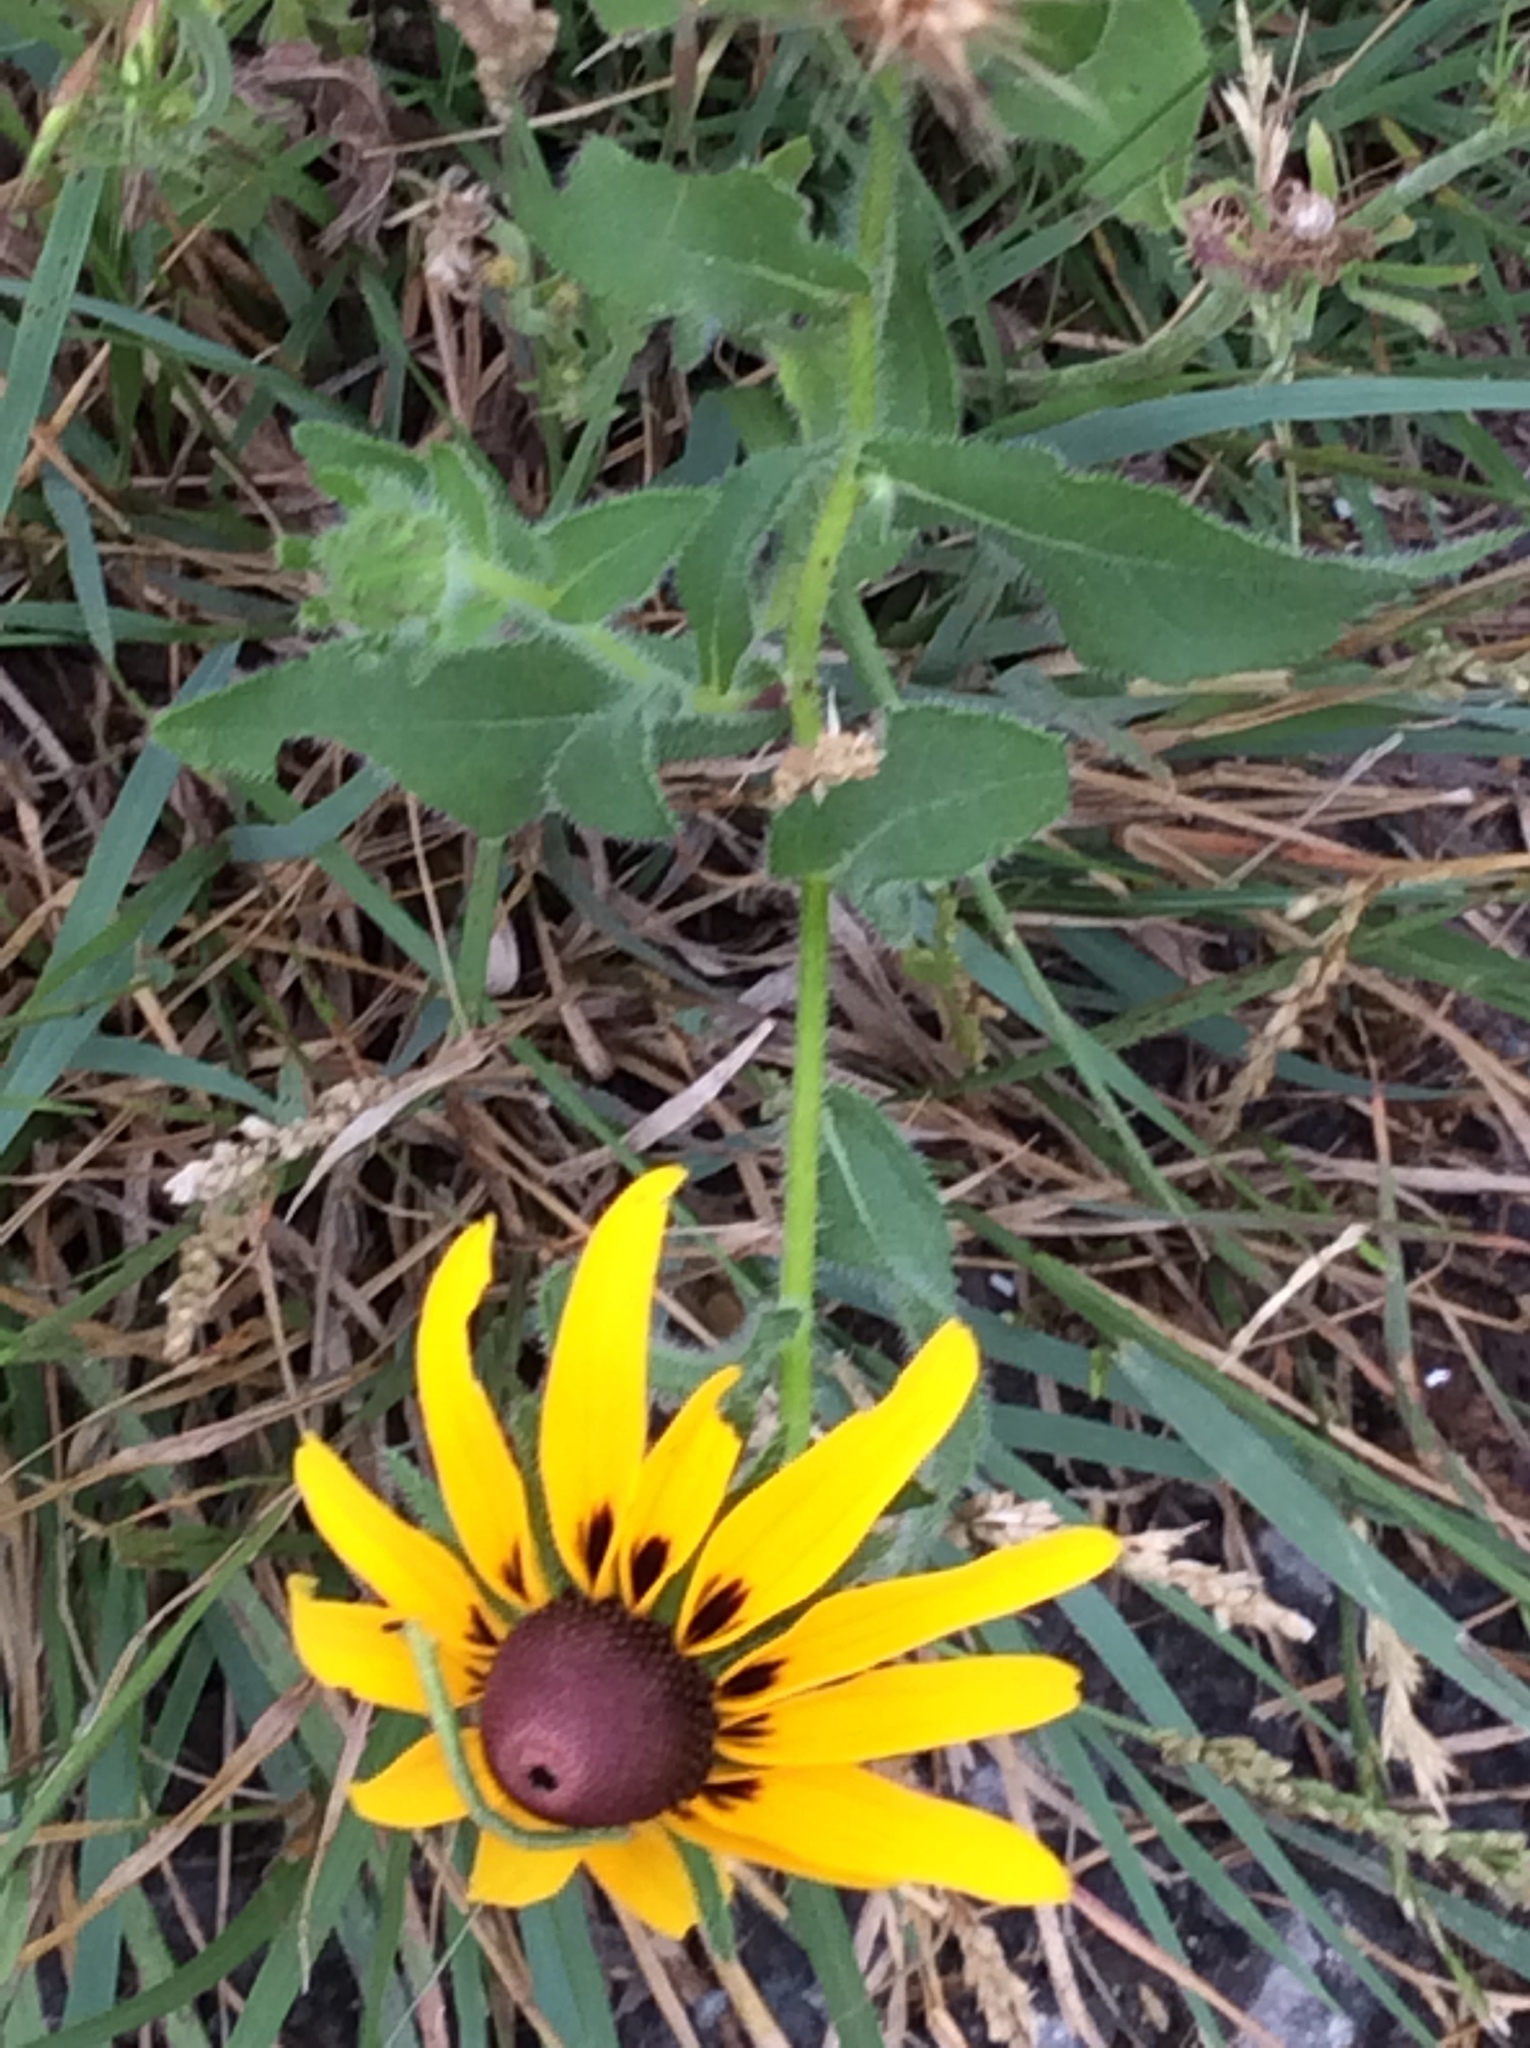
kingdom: Plantae
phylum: Tracheophyta
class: Magnoliopsida
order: Asterales
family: Asteraceae
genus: Rudbeckia
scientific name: Rudbeckia hirta
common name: Black-eyed-susan
